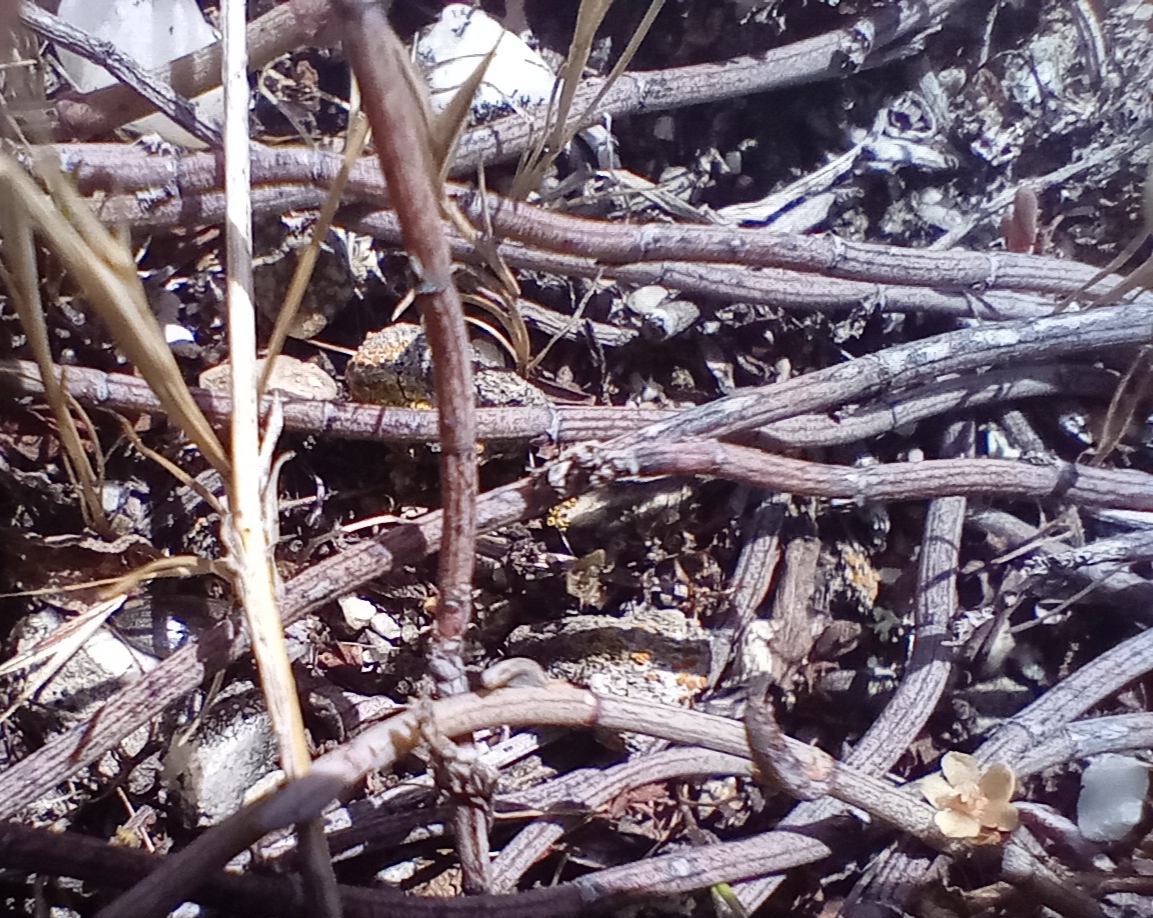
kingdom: Plantae
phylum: Tracheophyta
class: Magnoliopsida
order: Caryophyllales
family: Polygonaceae
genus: Muehlenbeckia
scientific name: Muehlenbeckia ephedroides
